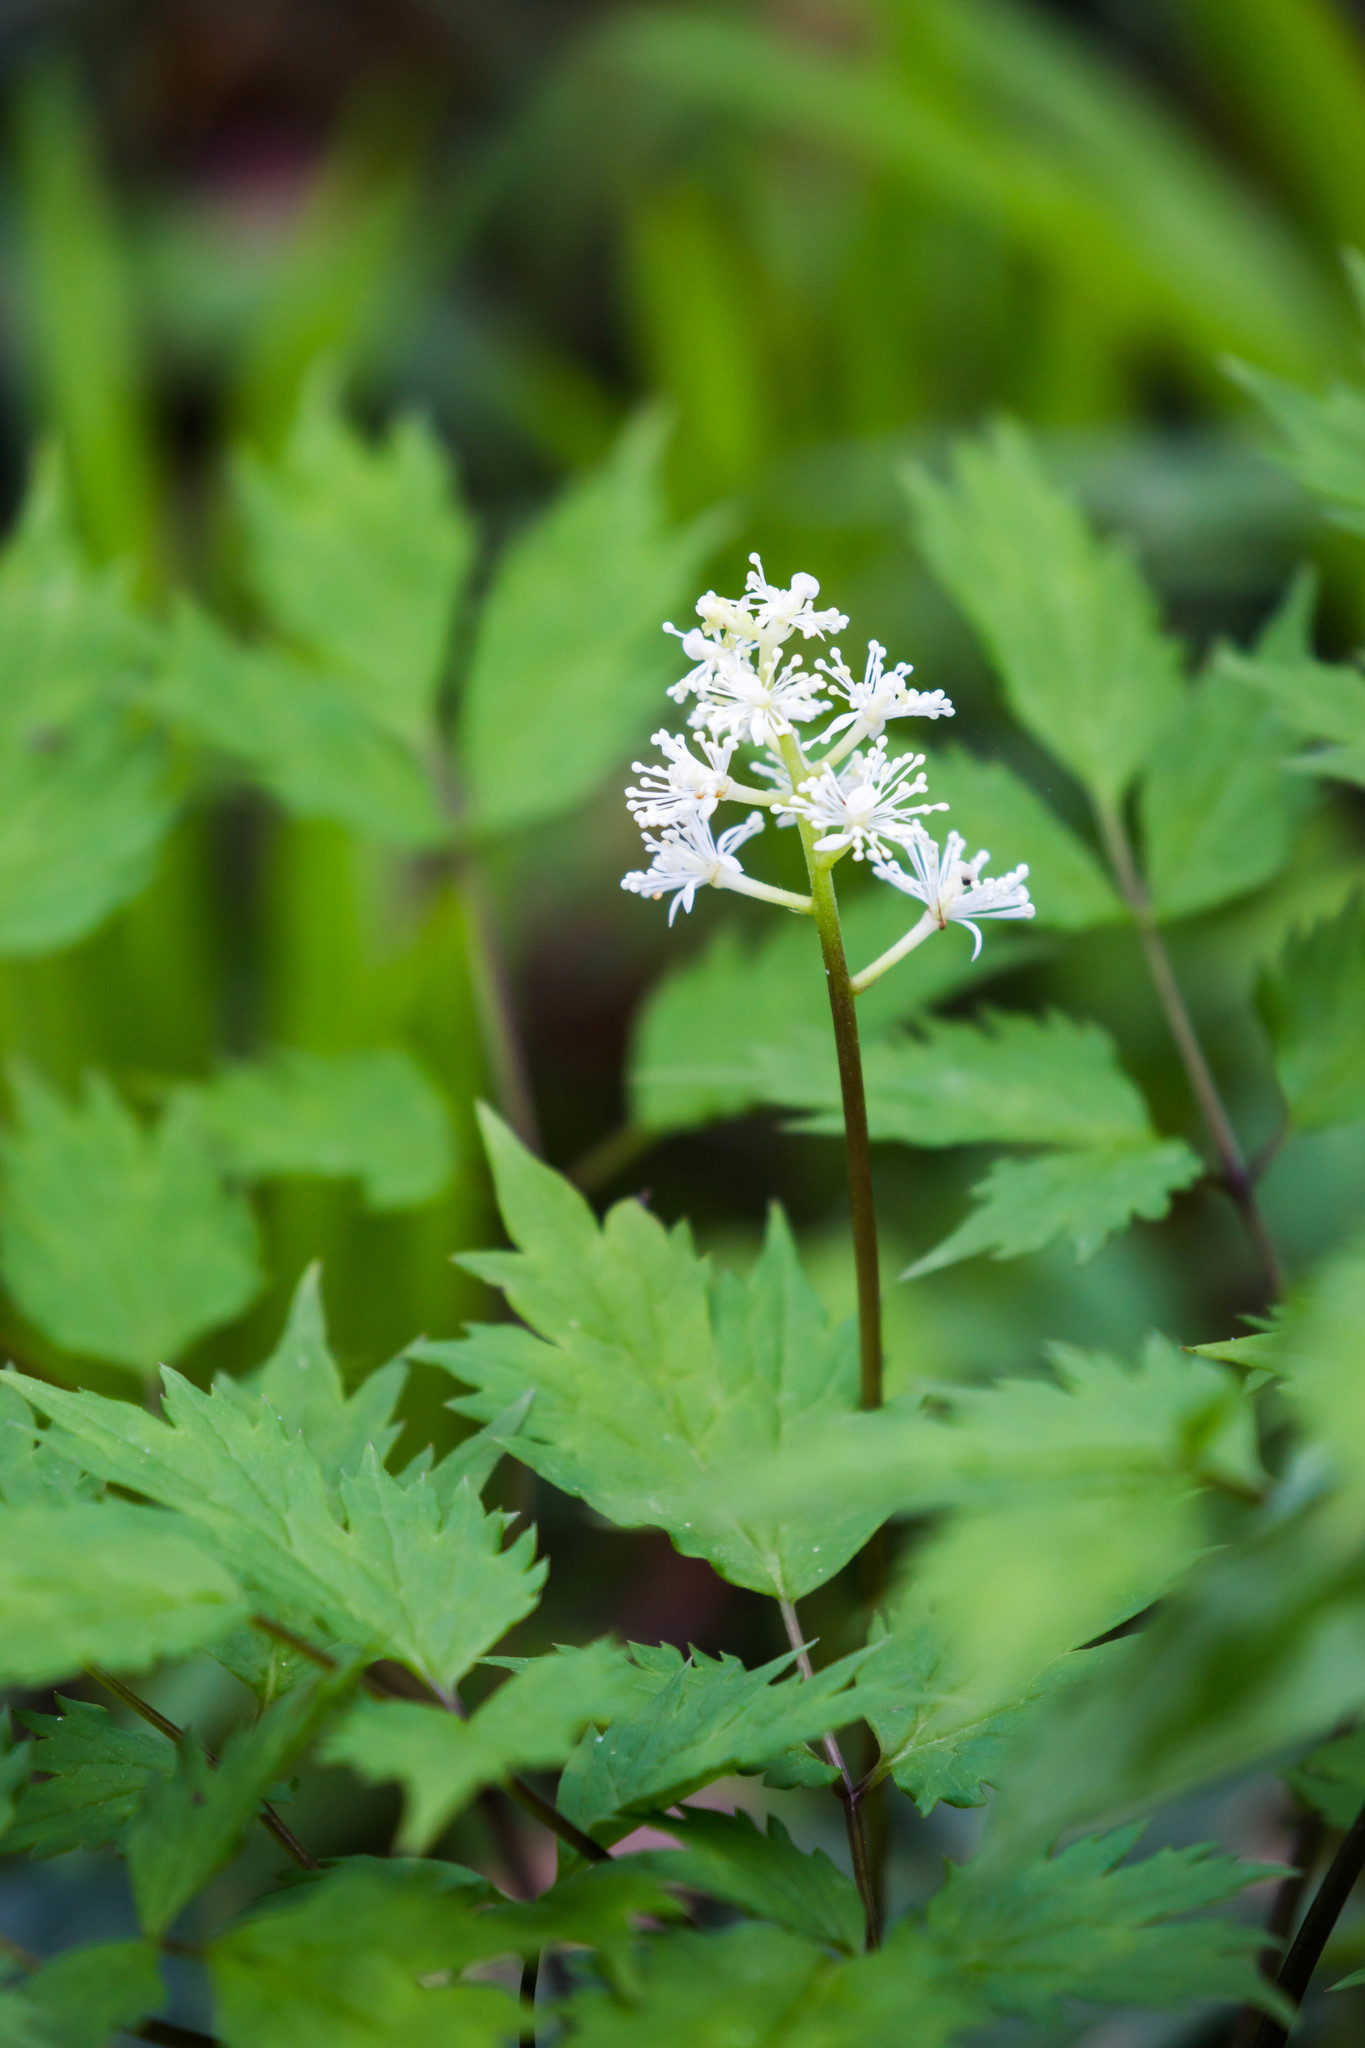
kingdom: Plantae
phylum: Tracheophyta
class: Magnoliopsida
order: Ranunculales
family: Ranunculaceae
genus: Actaea
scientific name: Actaea pachypoda
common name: Doll's-eyes
